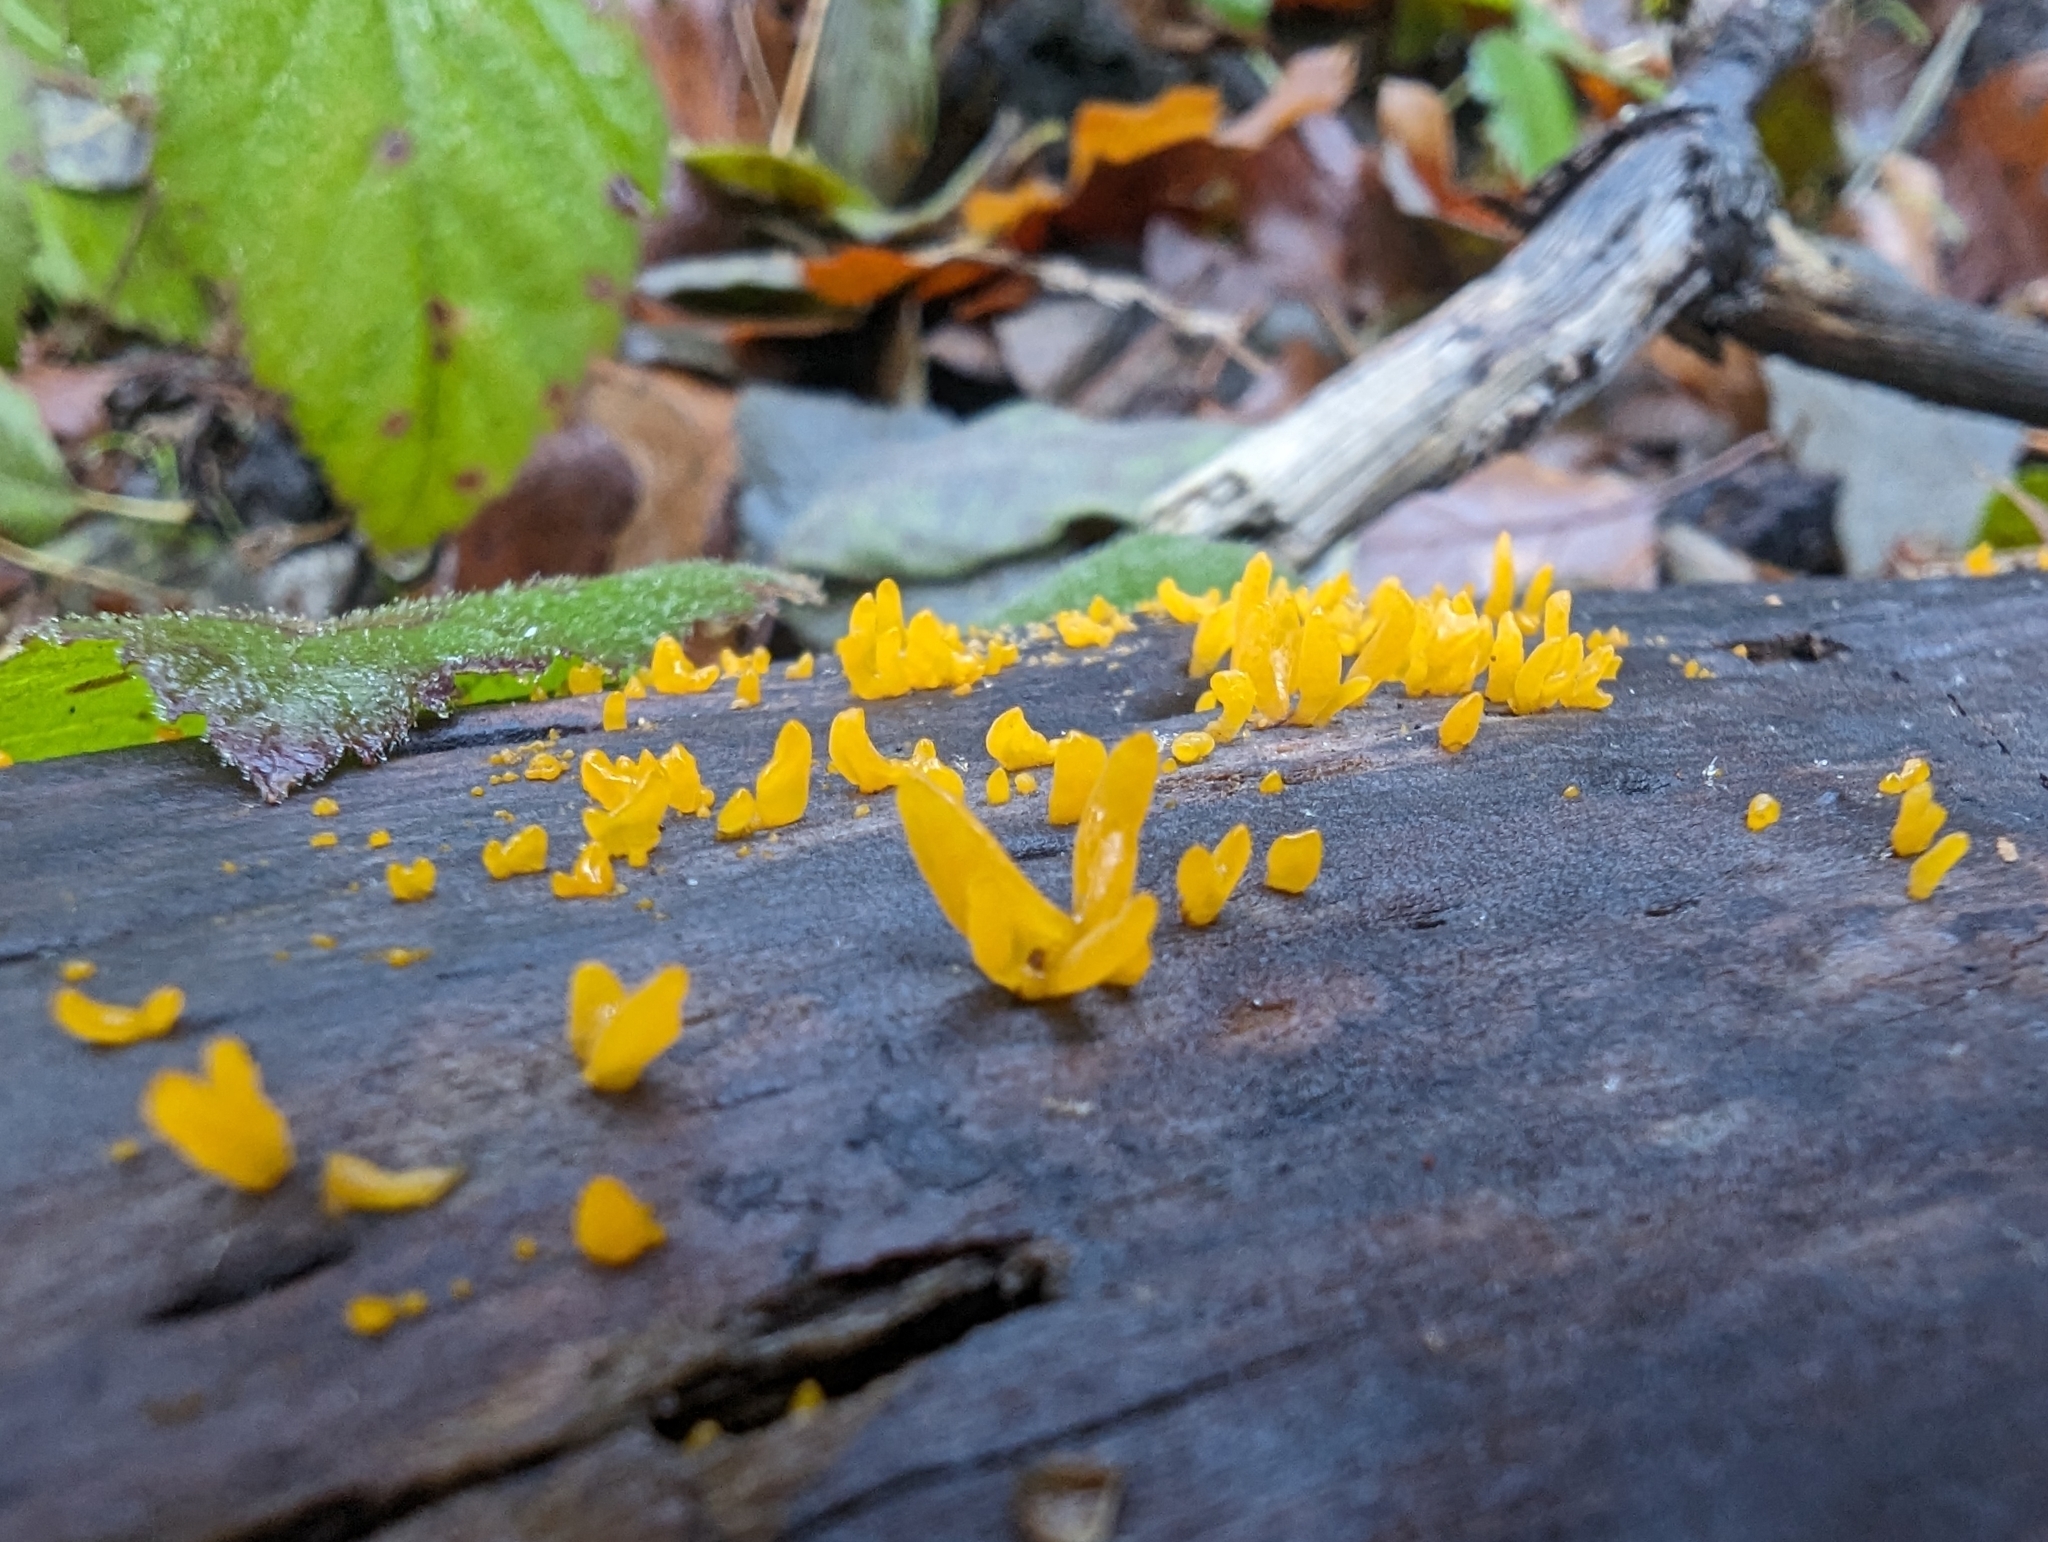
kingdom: Fungi
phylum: Basidiomycota
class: Dacrymycetes
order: Dacrymycetales
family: Dacrymycetaceae
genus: Calocera
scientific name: Calocera cornea
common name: Small stagshorn
